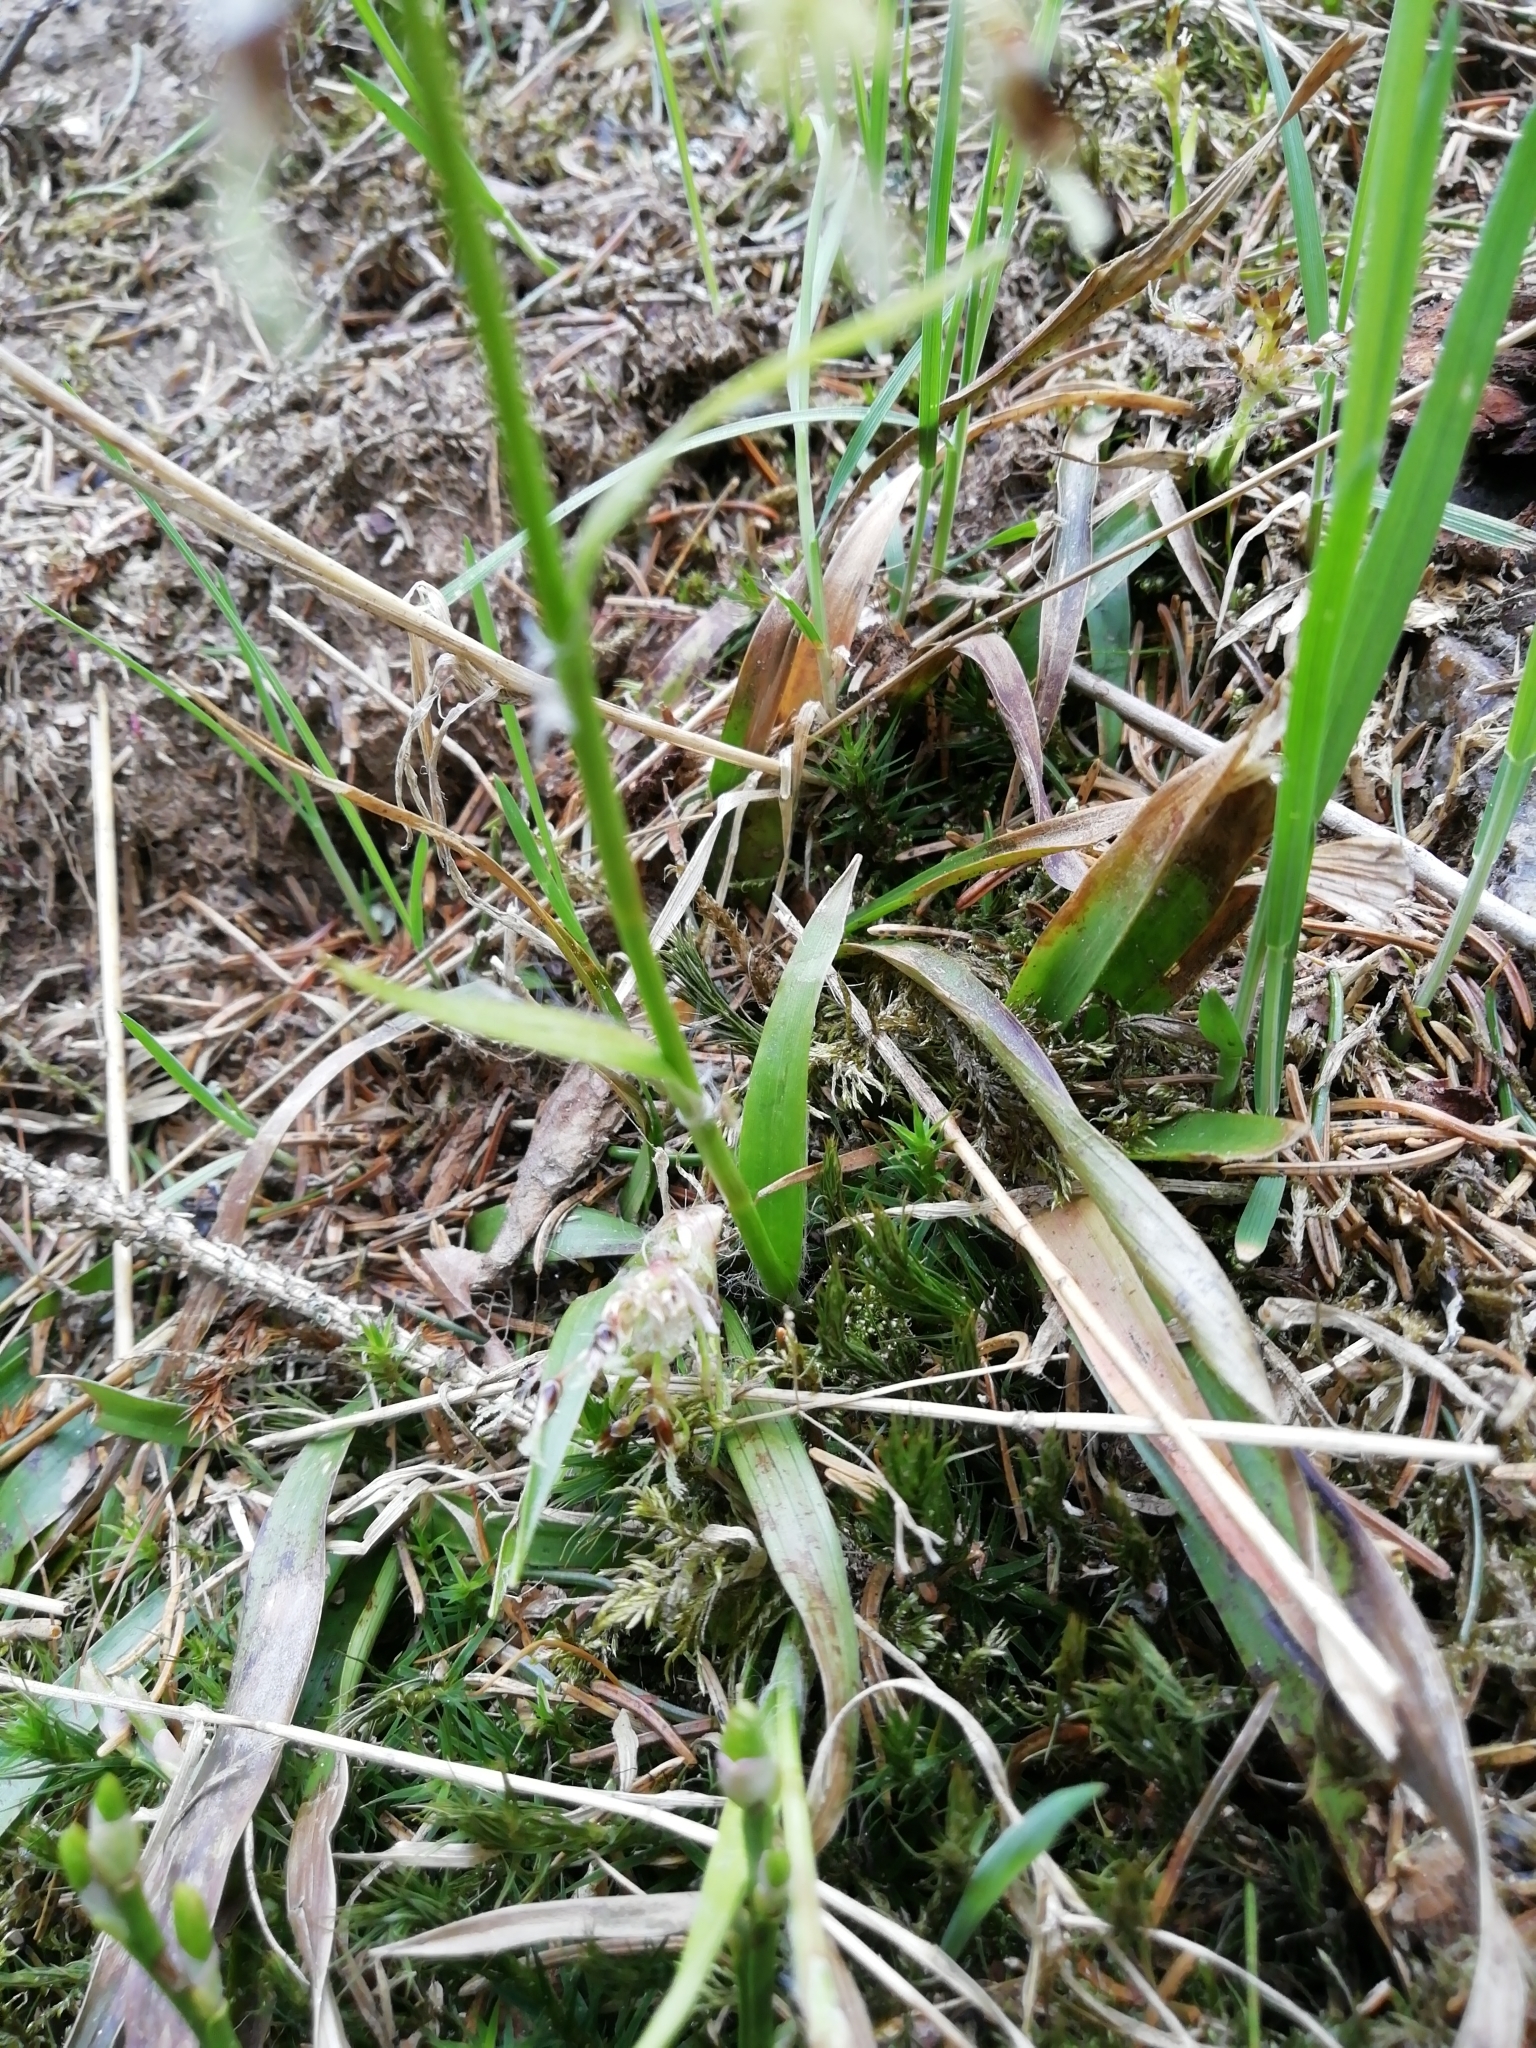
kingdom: Plantae
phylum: Tracheophyta
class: Liliopsida
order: Poales
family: Juncaceae
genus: Luzula
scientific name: Luzula pilosa
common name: Hairy wood-rush
